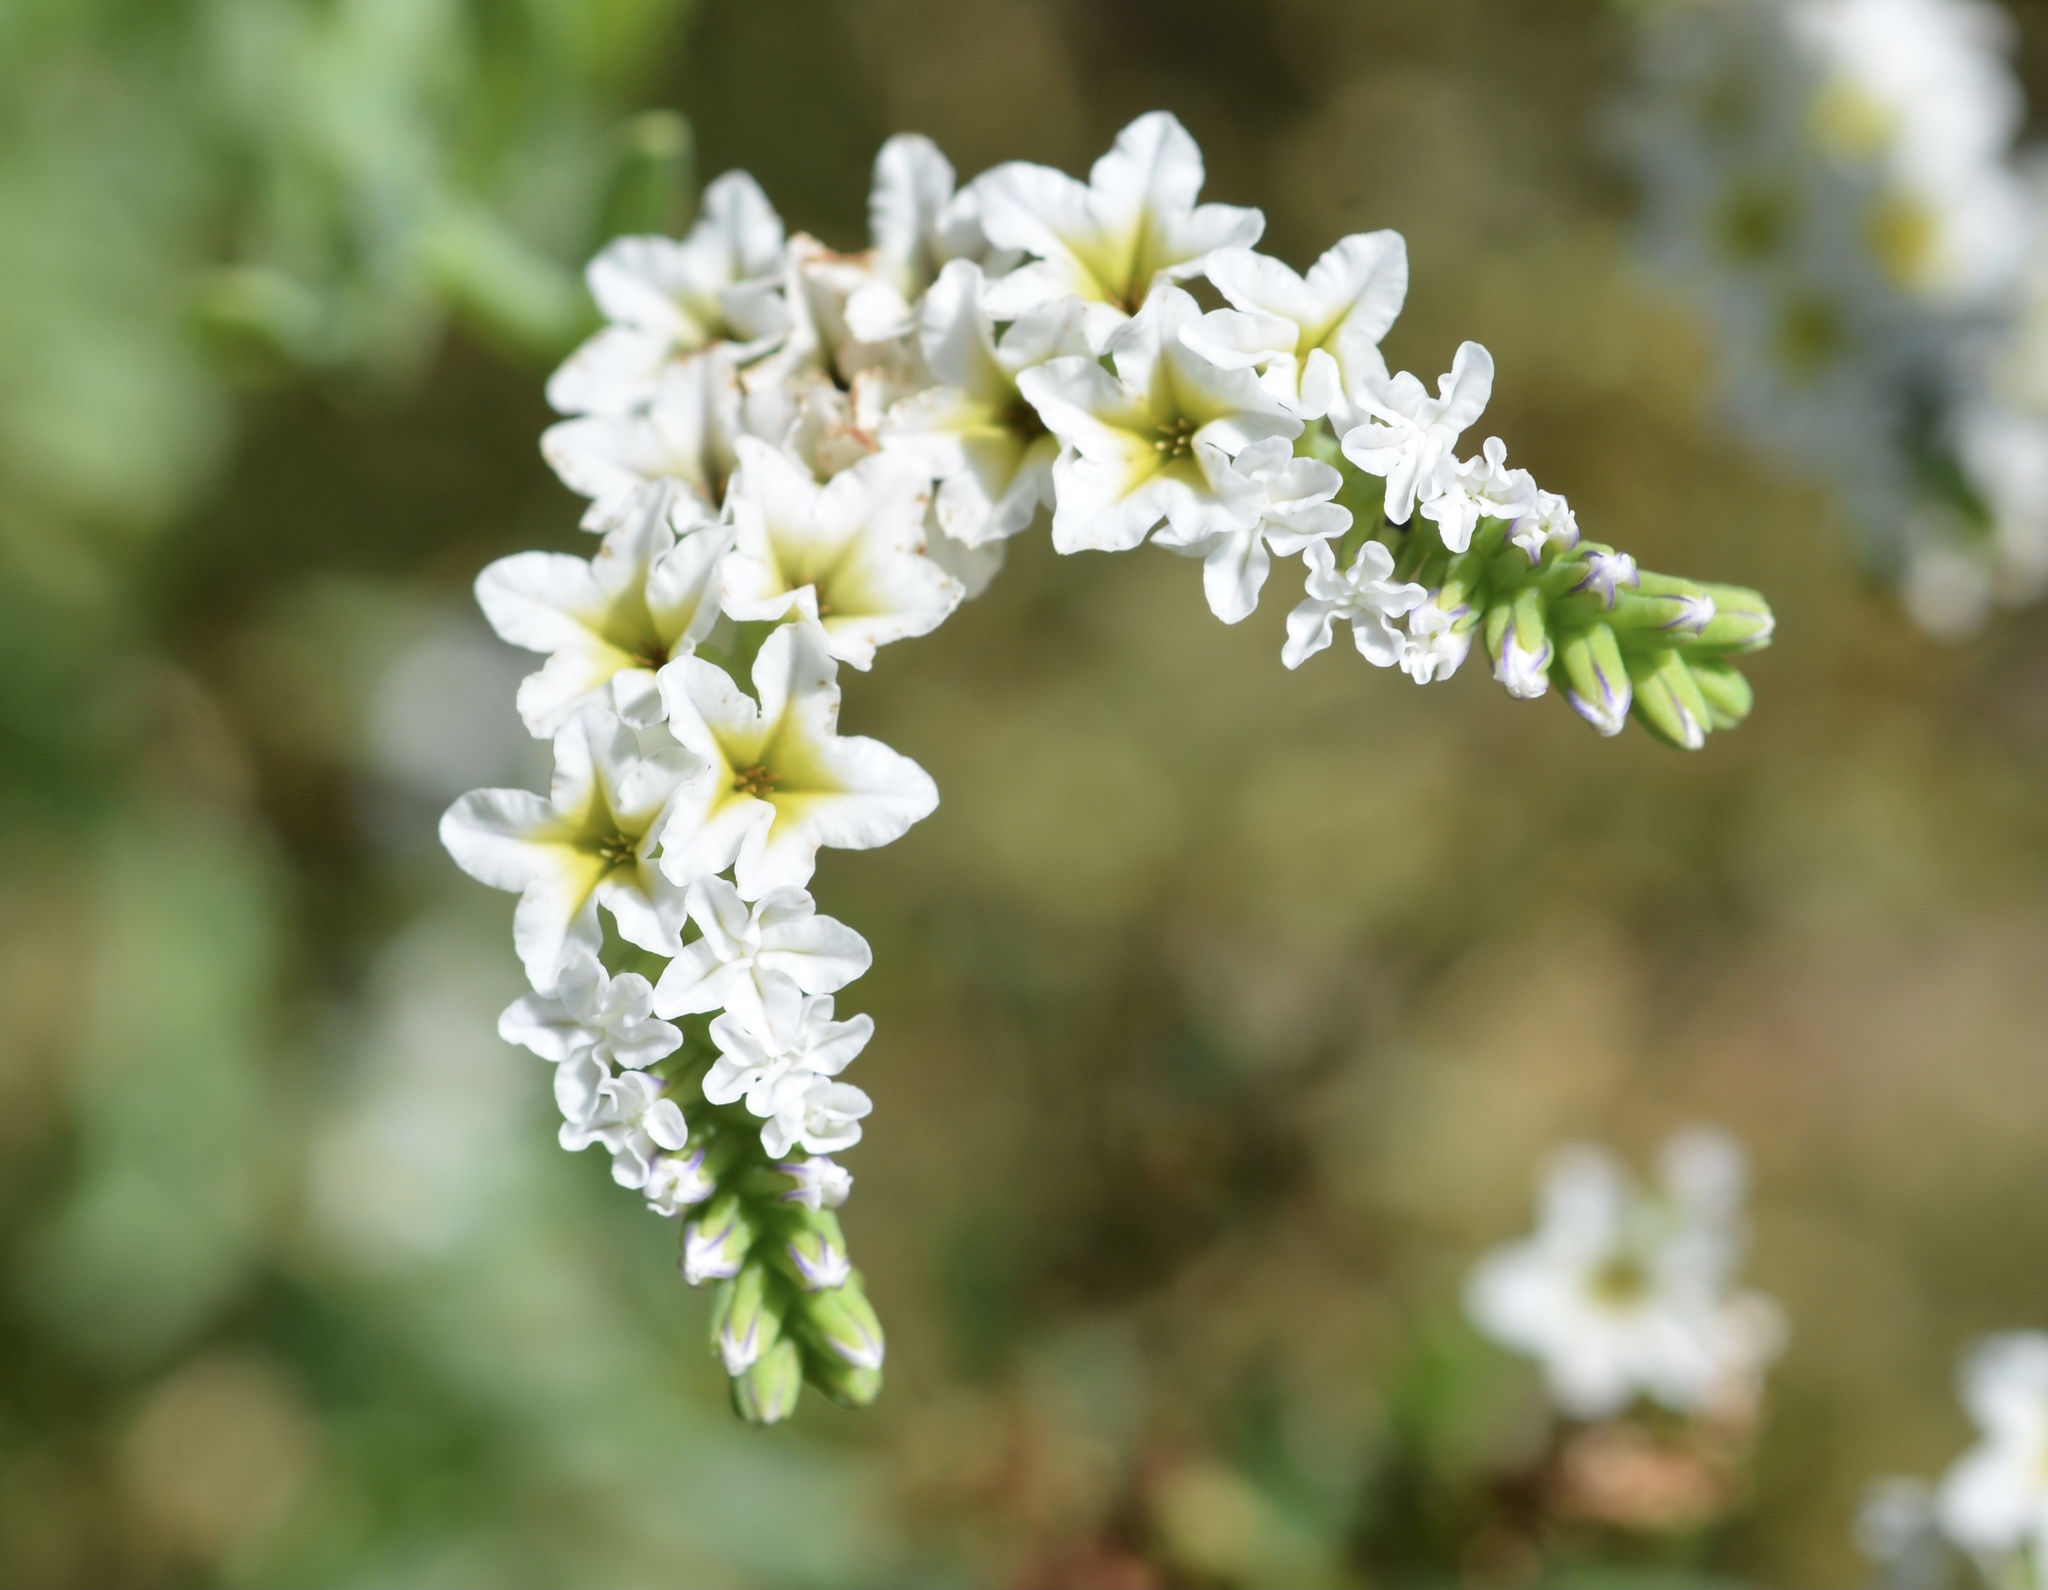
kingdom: Plantae
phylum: Tracheophyta
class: Magnoliopsida
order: Boraginales
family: Heliotropiaceae
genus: Heliotropium
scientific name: Heliotropium curassavicum
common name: Seaside heliotrope
